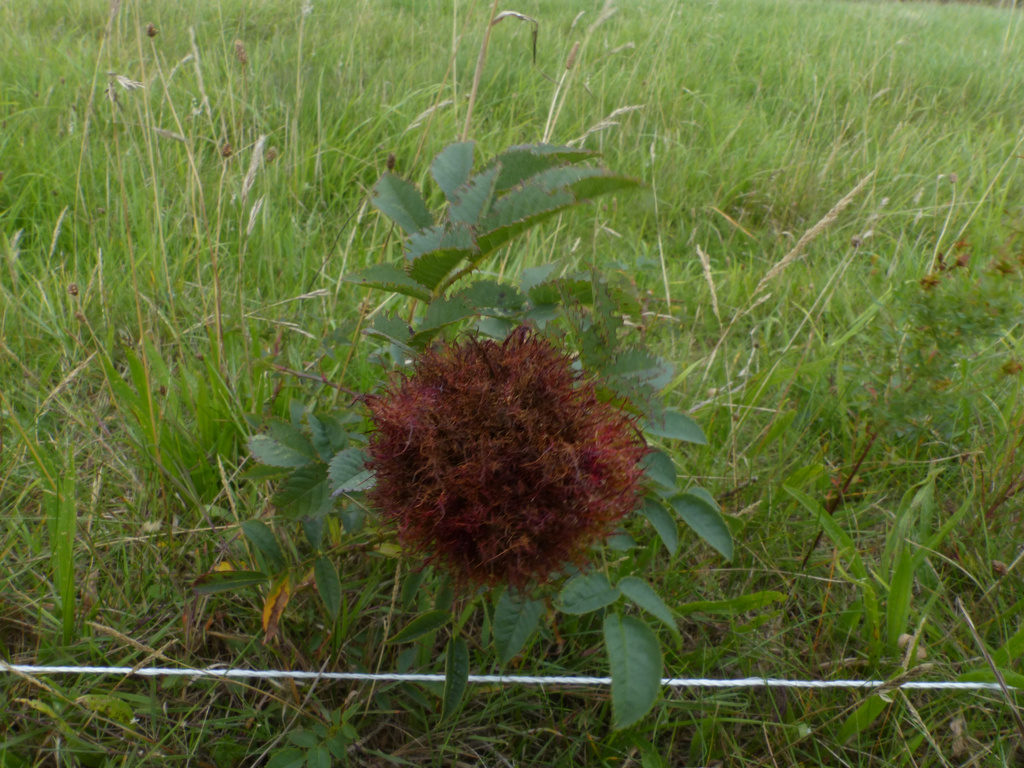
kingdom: Animalia
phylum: Arthropoda
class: Insecta
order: Hymenoptera
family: Cynipidae
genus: Diplolepis
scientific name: Diplolepis rosae
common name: Bedeguar gall
